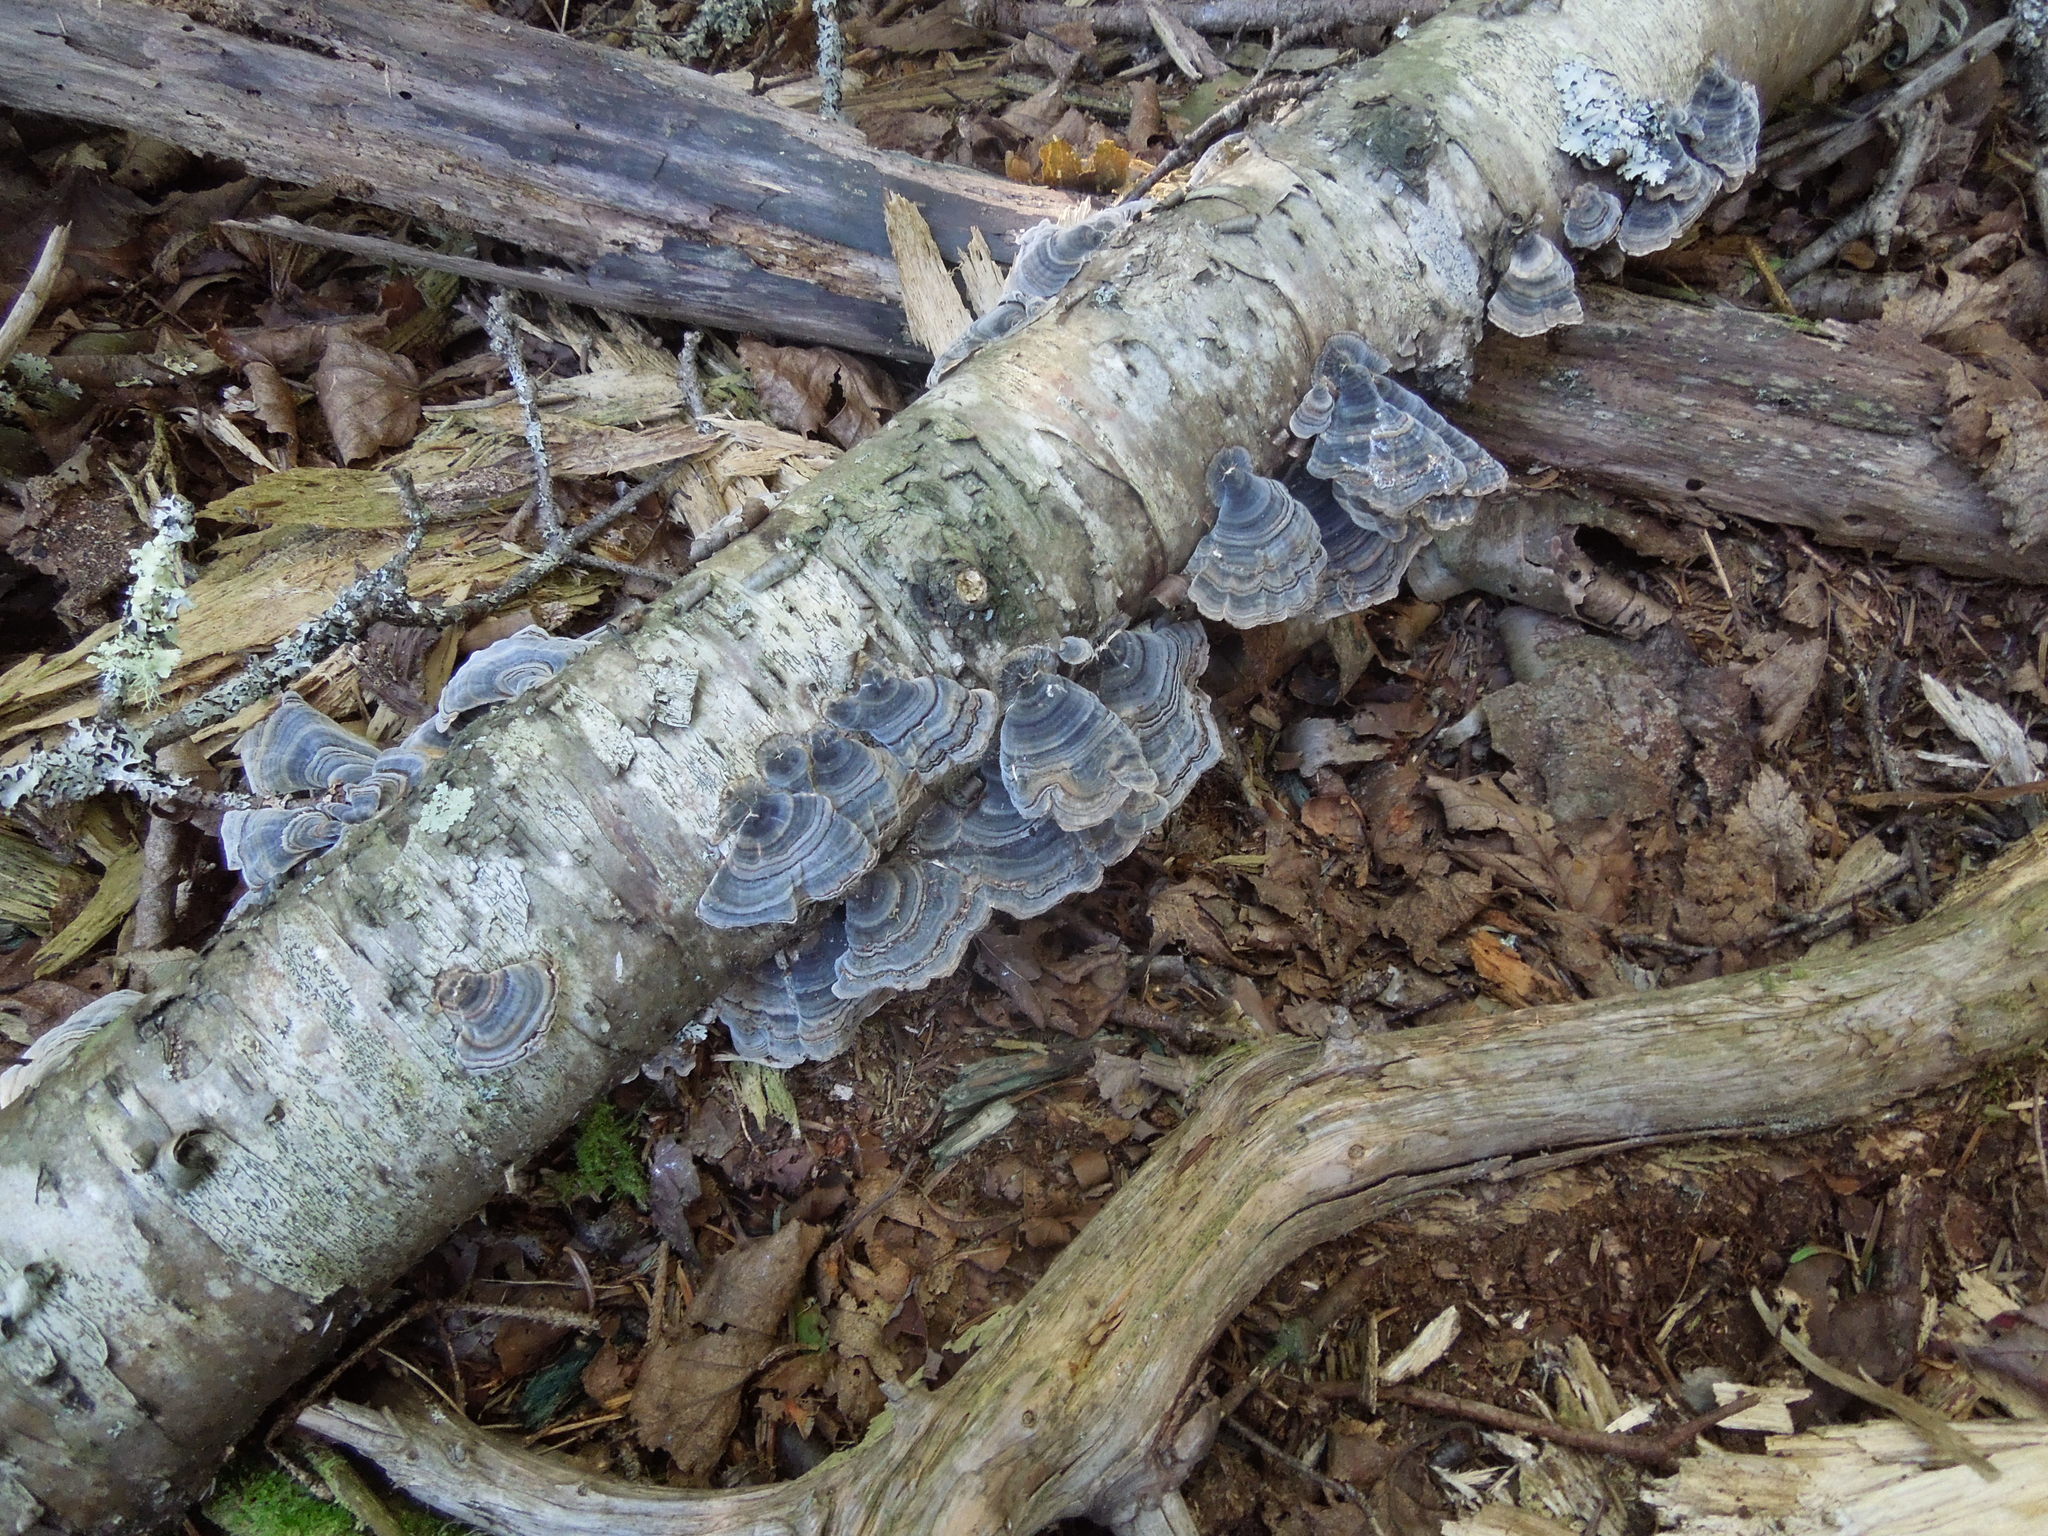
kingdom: Fungi
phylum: Basidiomycota
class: Agaricomycetes
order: Polyporales
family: Polyporaceae
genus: Trametes
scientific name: Trametes versicolor
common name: Turkeytail
